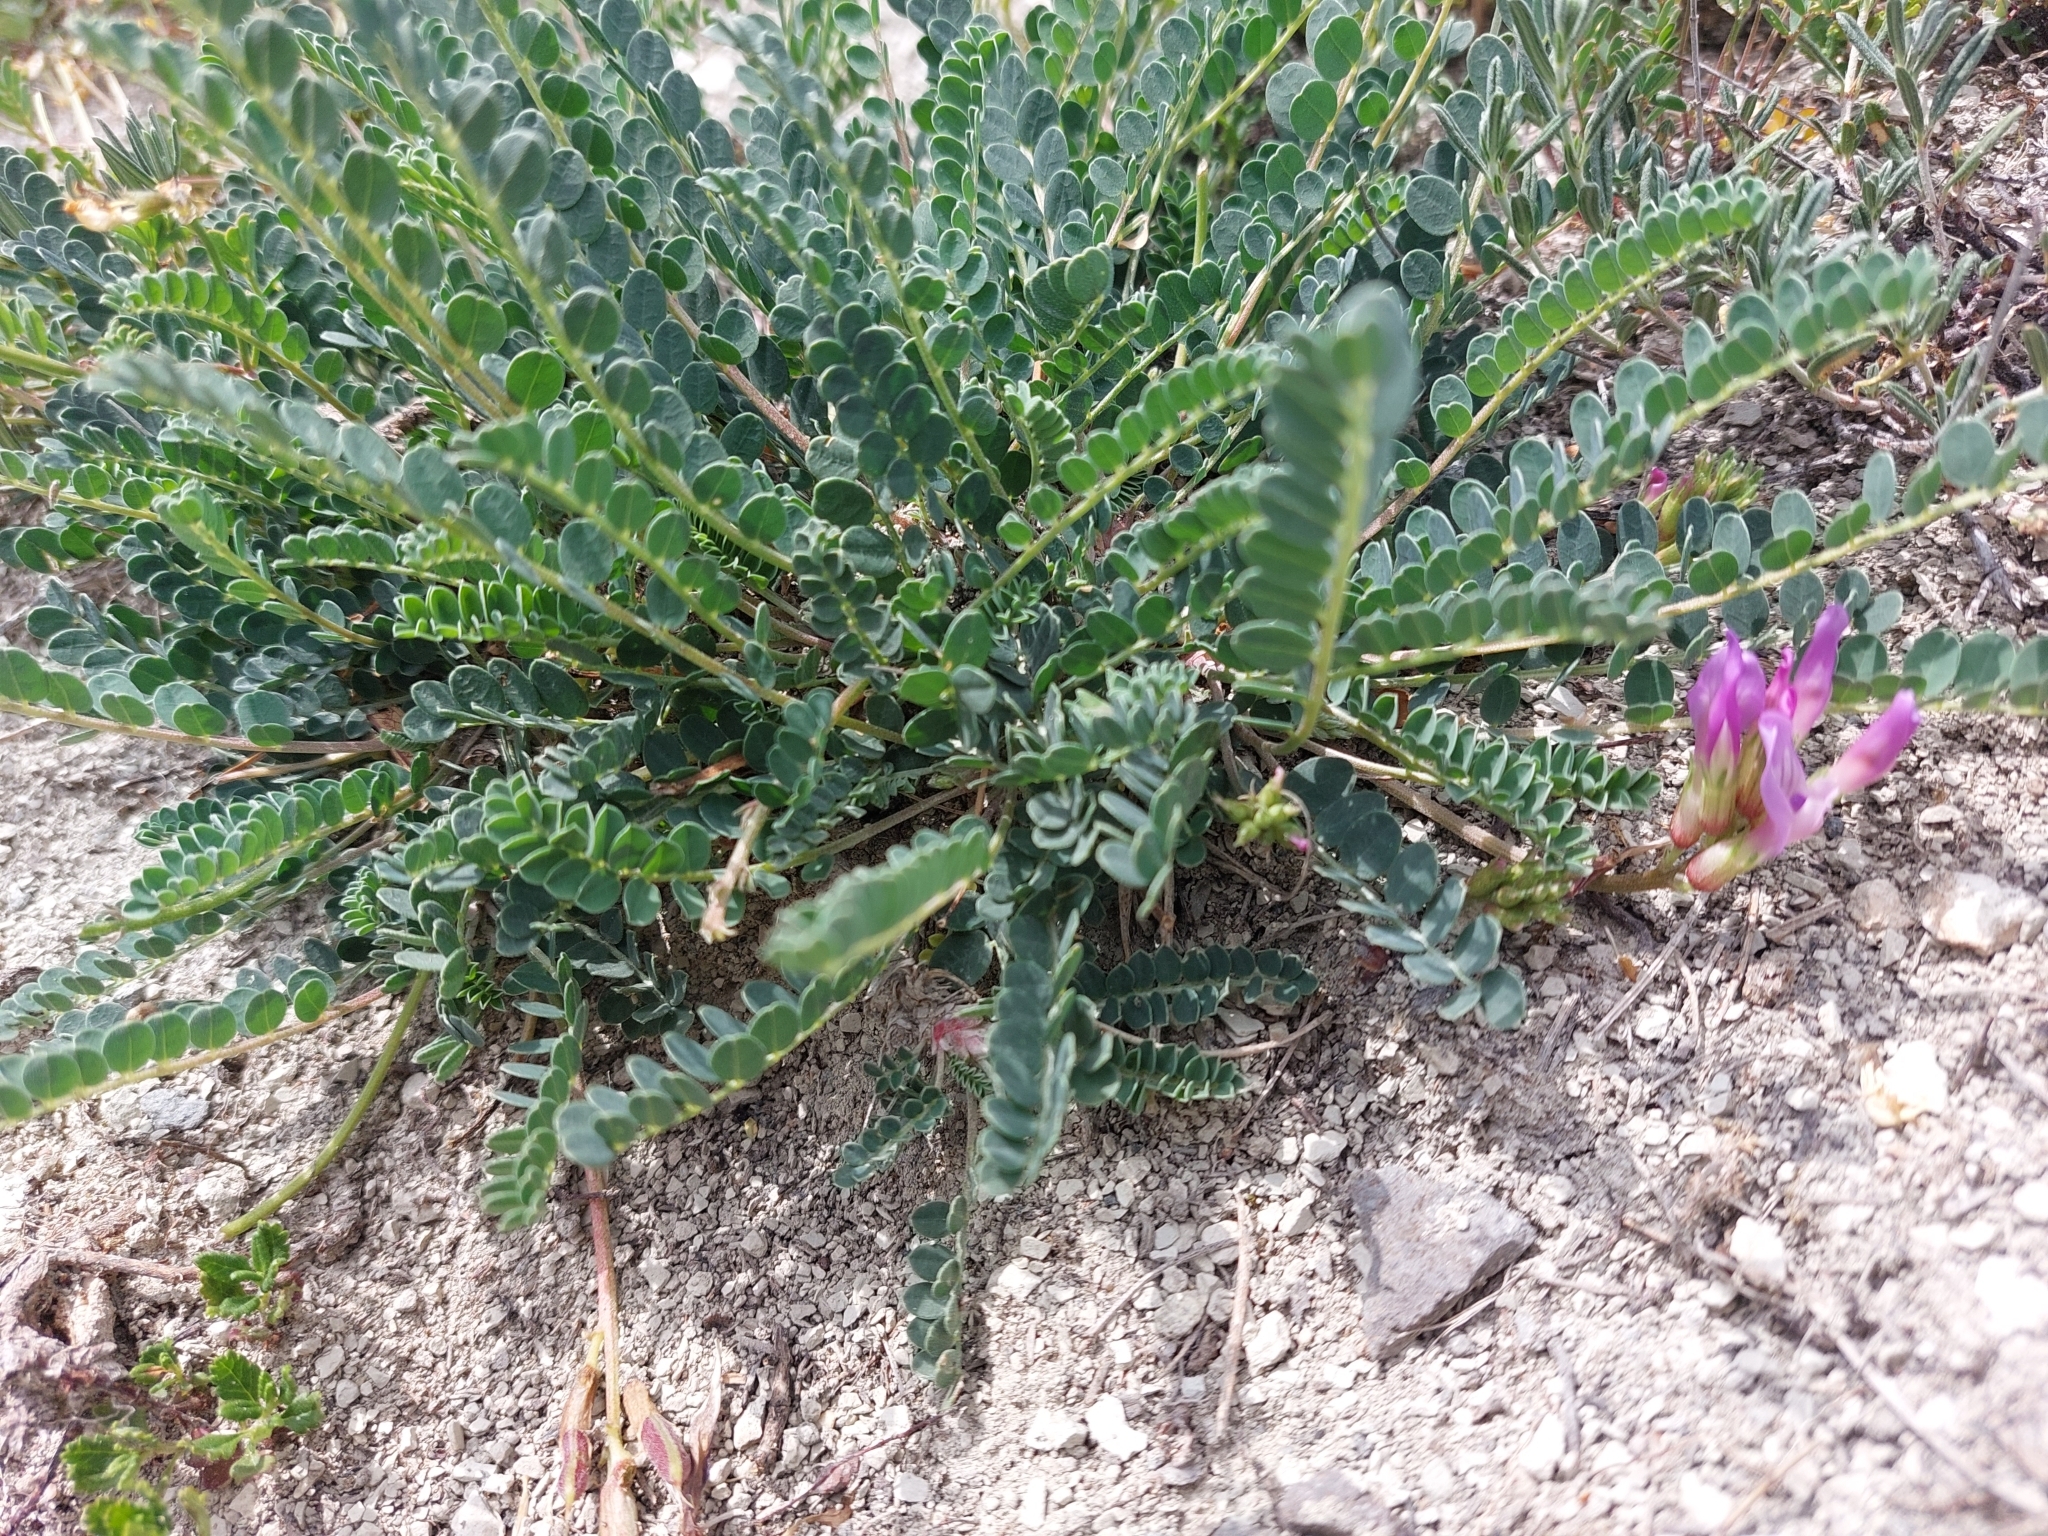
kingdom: Plantae
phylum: Tracheophyta
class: Magnoliopsida
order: Fabales
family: Fabaceae
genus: Astragalus
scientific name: Astragalus monspessulanus
